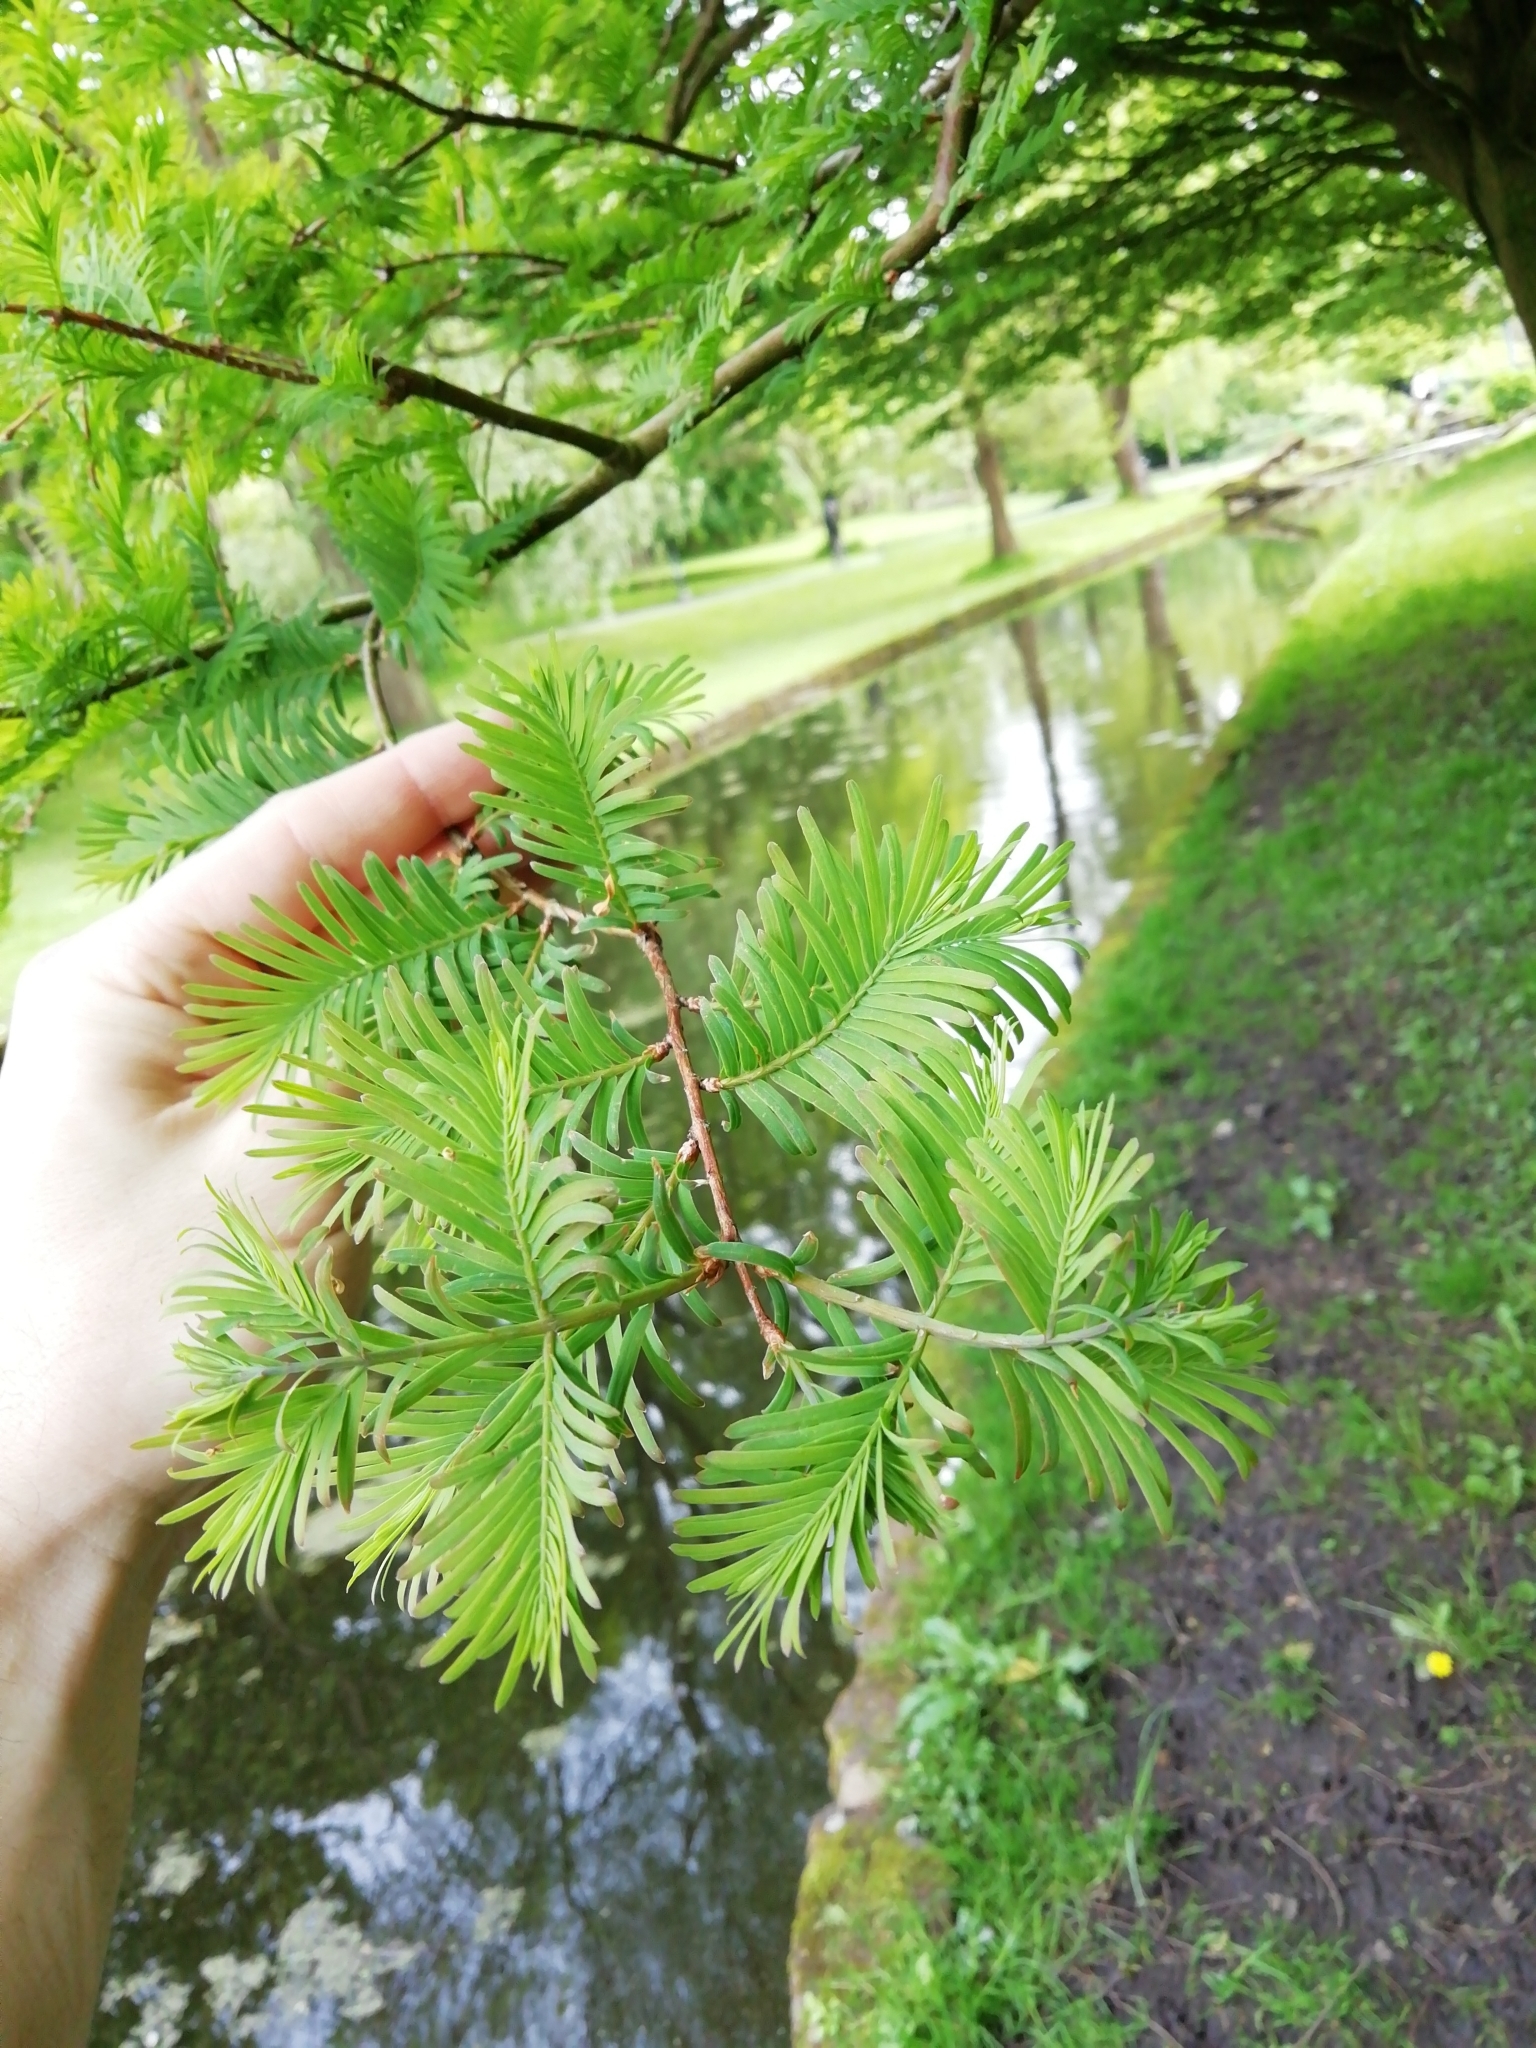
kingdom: Plantae
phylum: Tracheophyta
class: Pinopsida
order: Pinales
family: Cupressaceae
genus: Metasequoia
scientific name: Metasequoia glyptostroboides
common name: Dawn redwood
